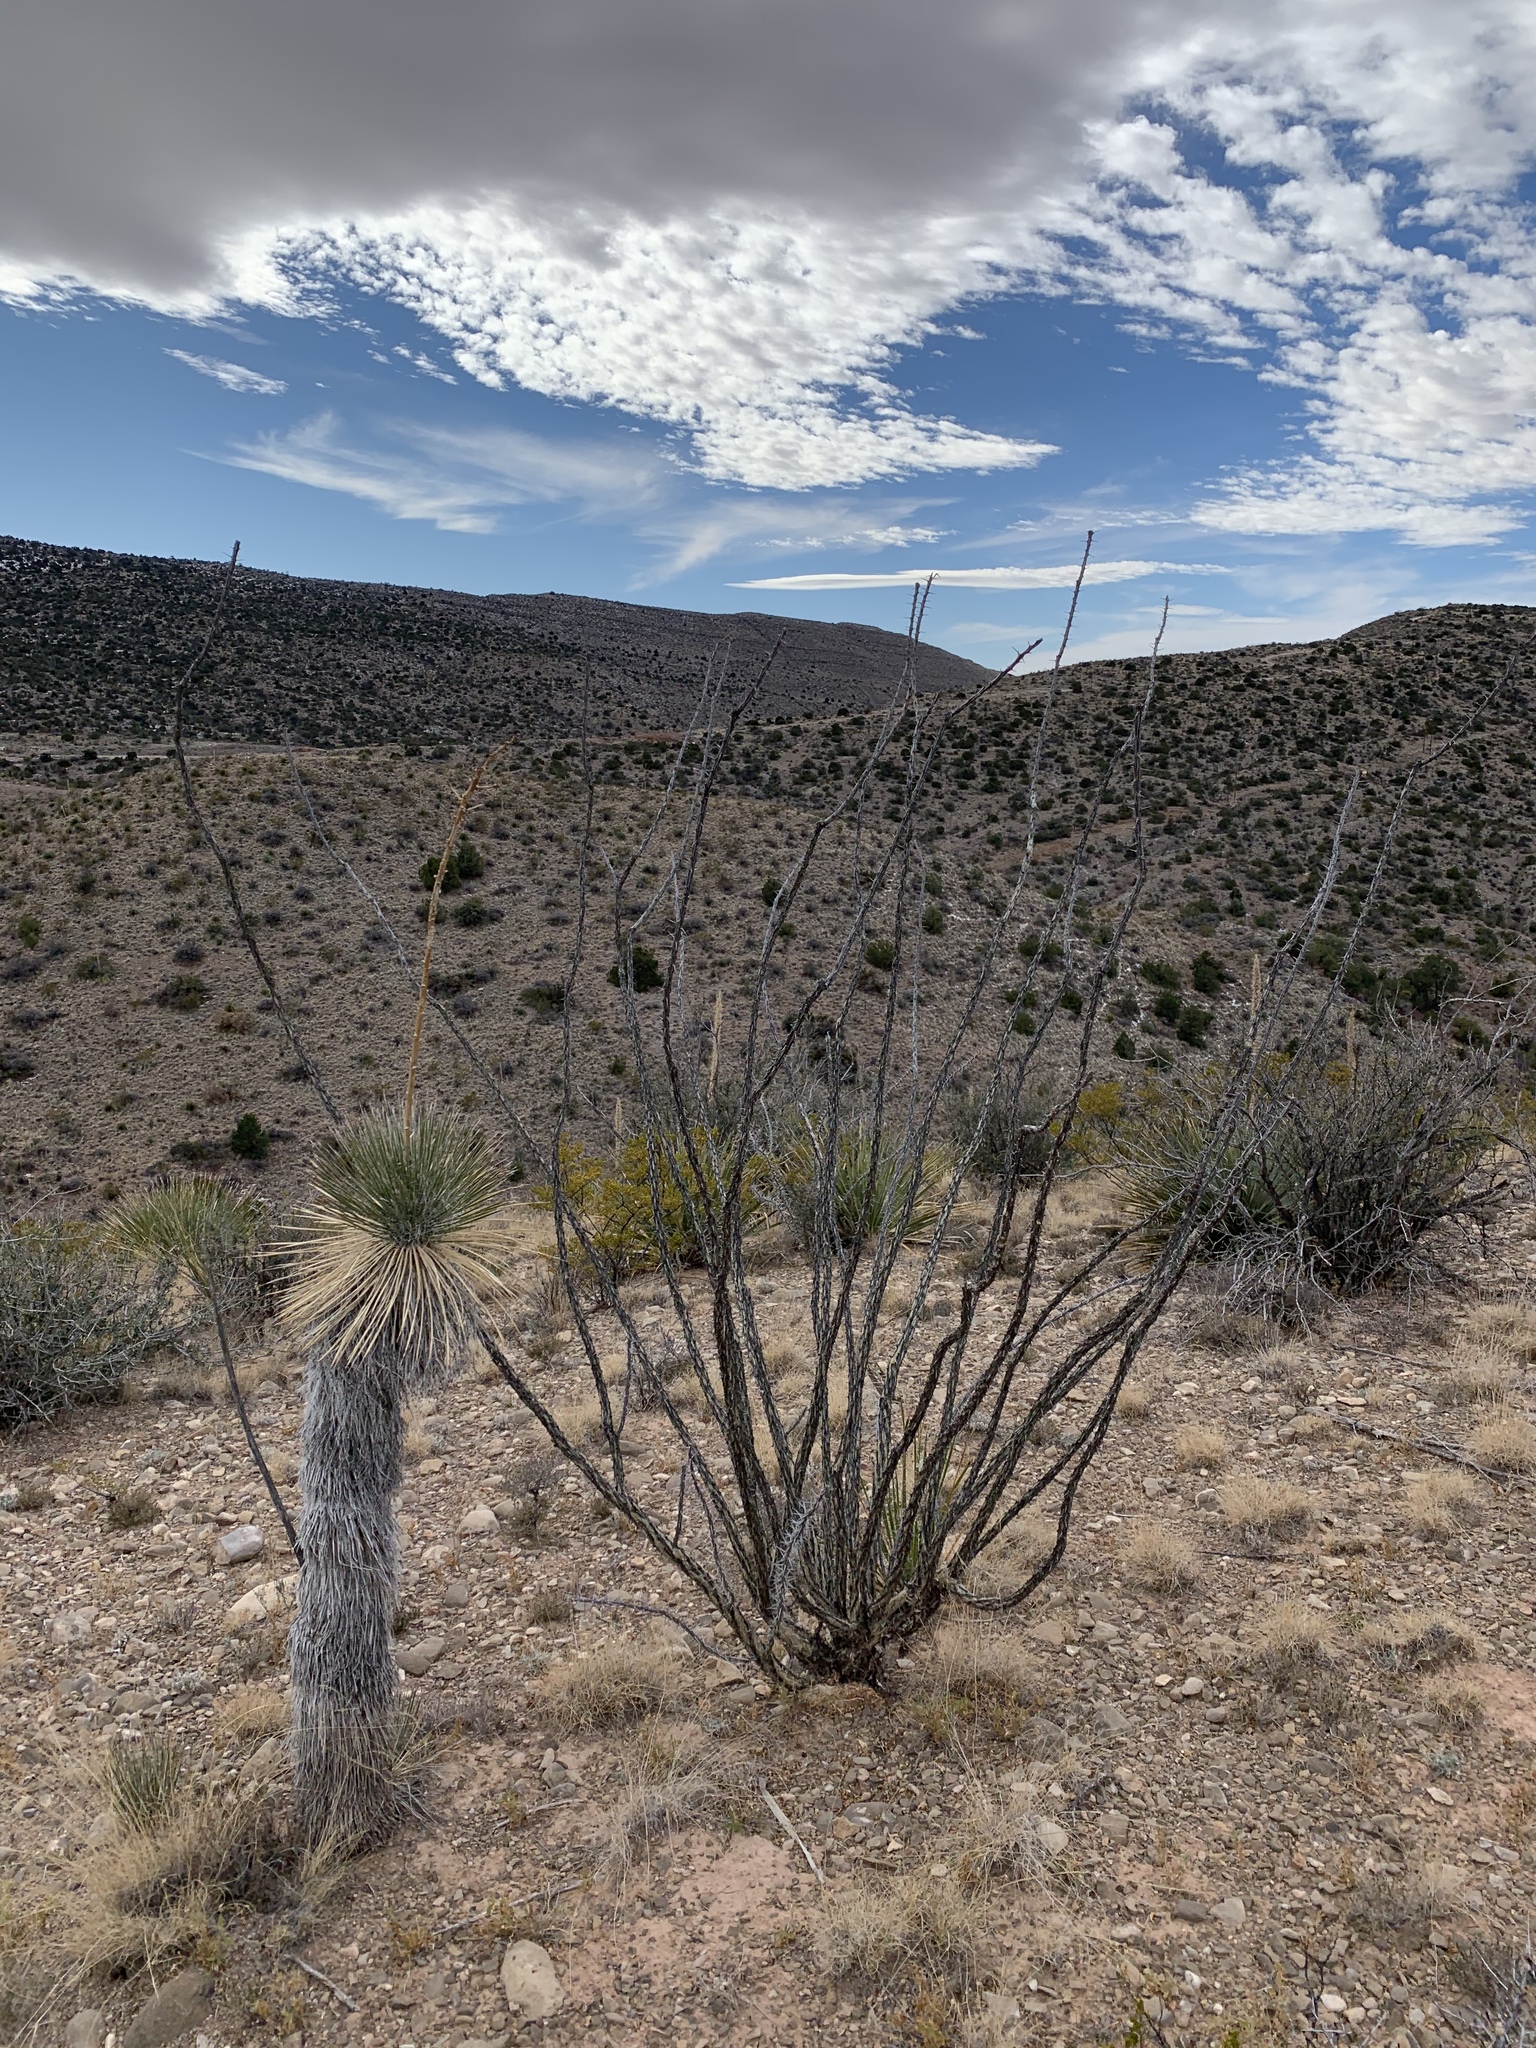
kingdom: Plantae
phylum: Tracheophyta
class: Magnoliopsida
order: Ericales
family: Fouquieriaceae
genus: Fouquieria
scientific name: Fouquieria splendens
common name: Vine-cactus
